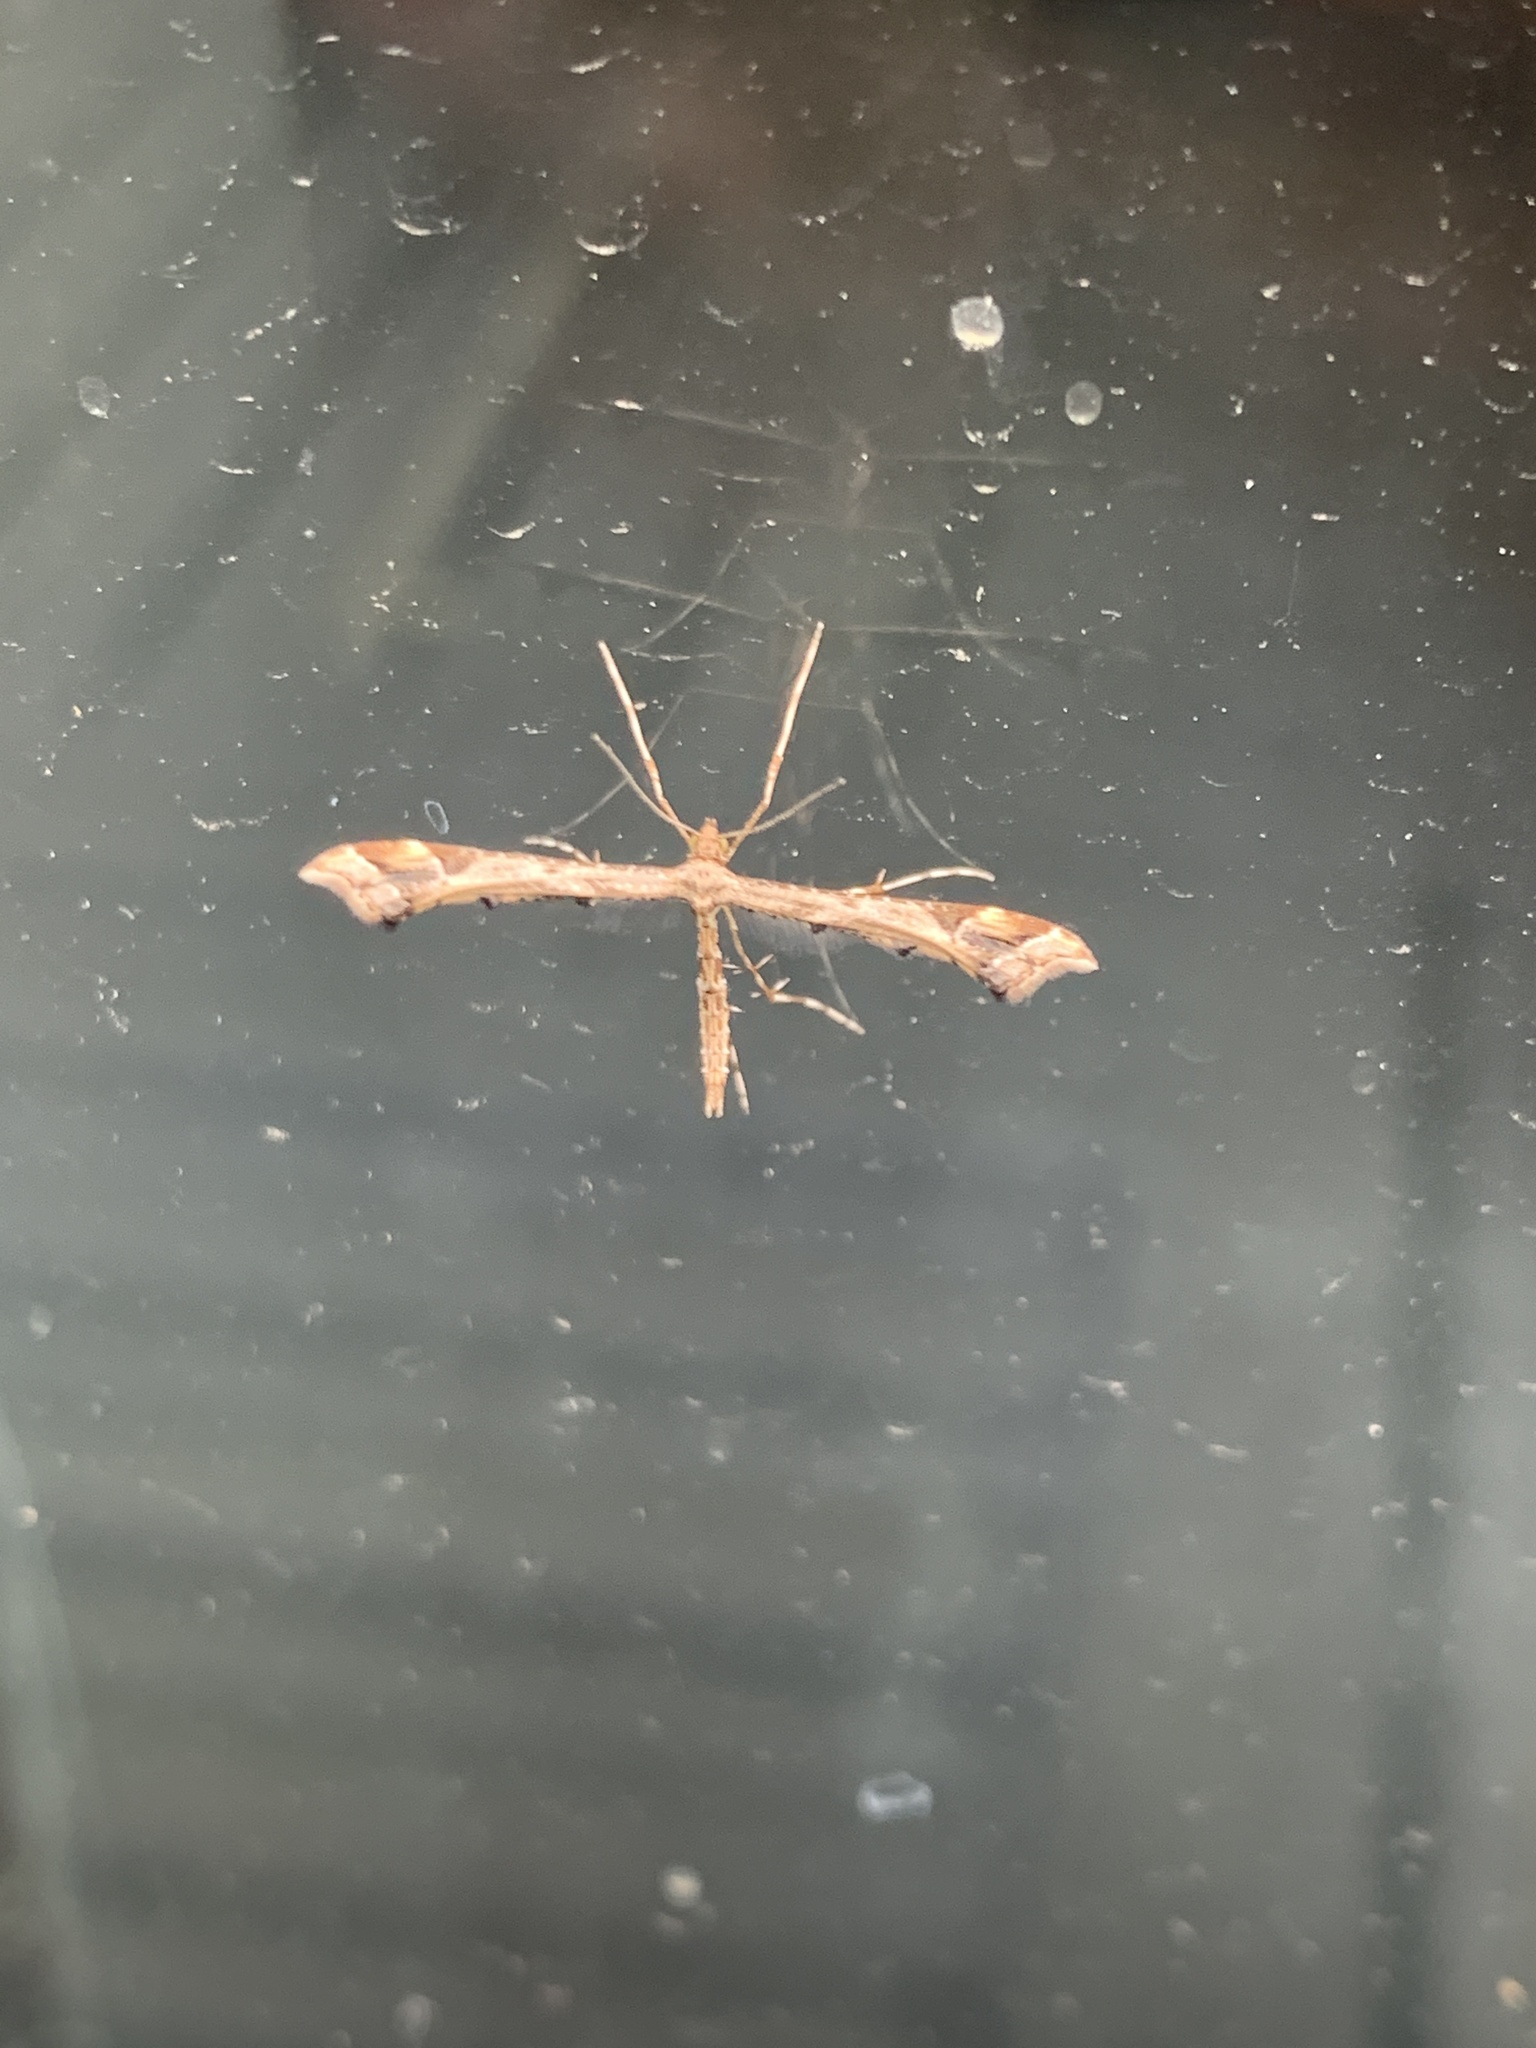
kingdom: Animalia
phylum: Arthropoda
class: Insecta
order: Lepidoptera
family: Pterophoridae
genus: Amblyptilia
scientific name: Amblyptilia acanthadactyla
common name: Beautiful plume
